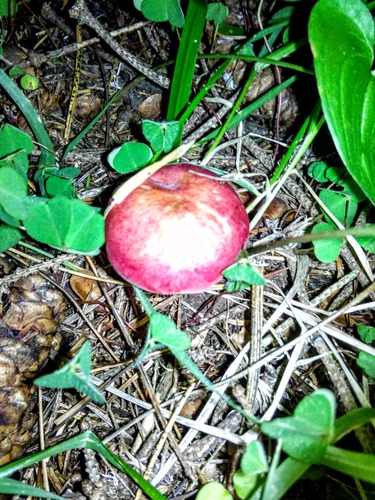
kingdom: Fungi
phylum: Basidiomycota
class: Agaricomycetes
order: Russulales
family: Russulaceae
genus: Russula
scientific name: Russula
